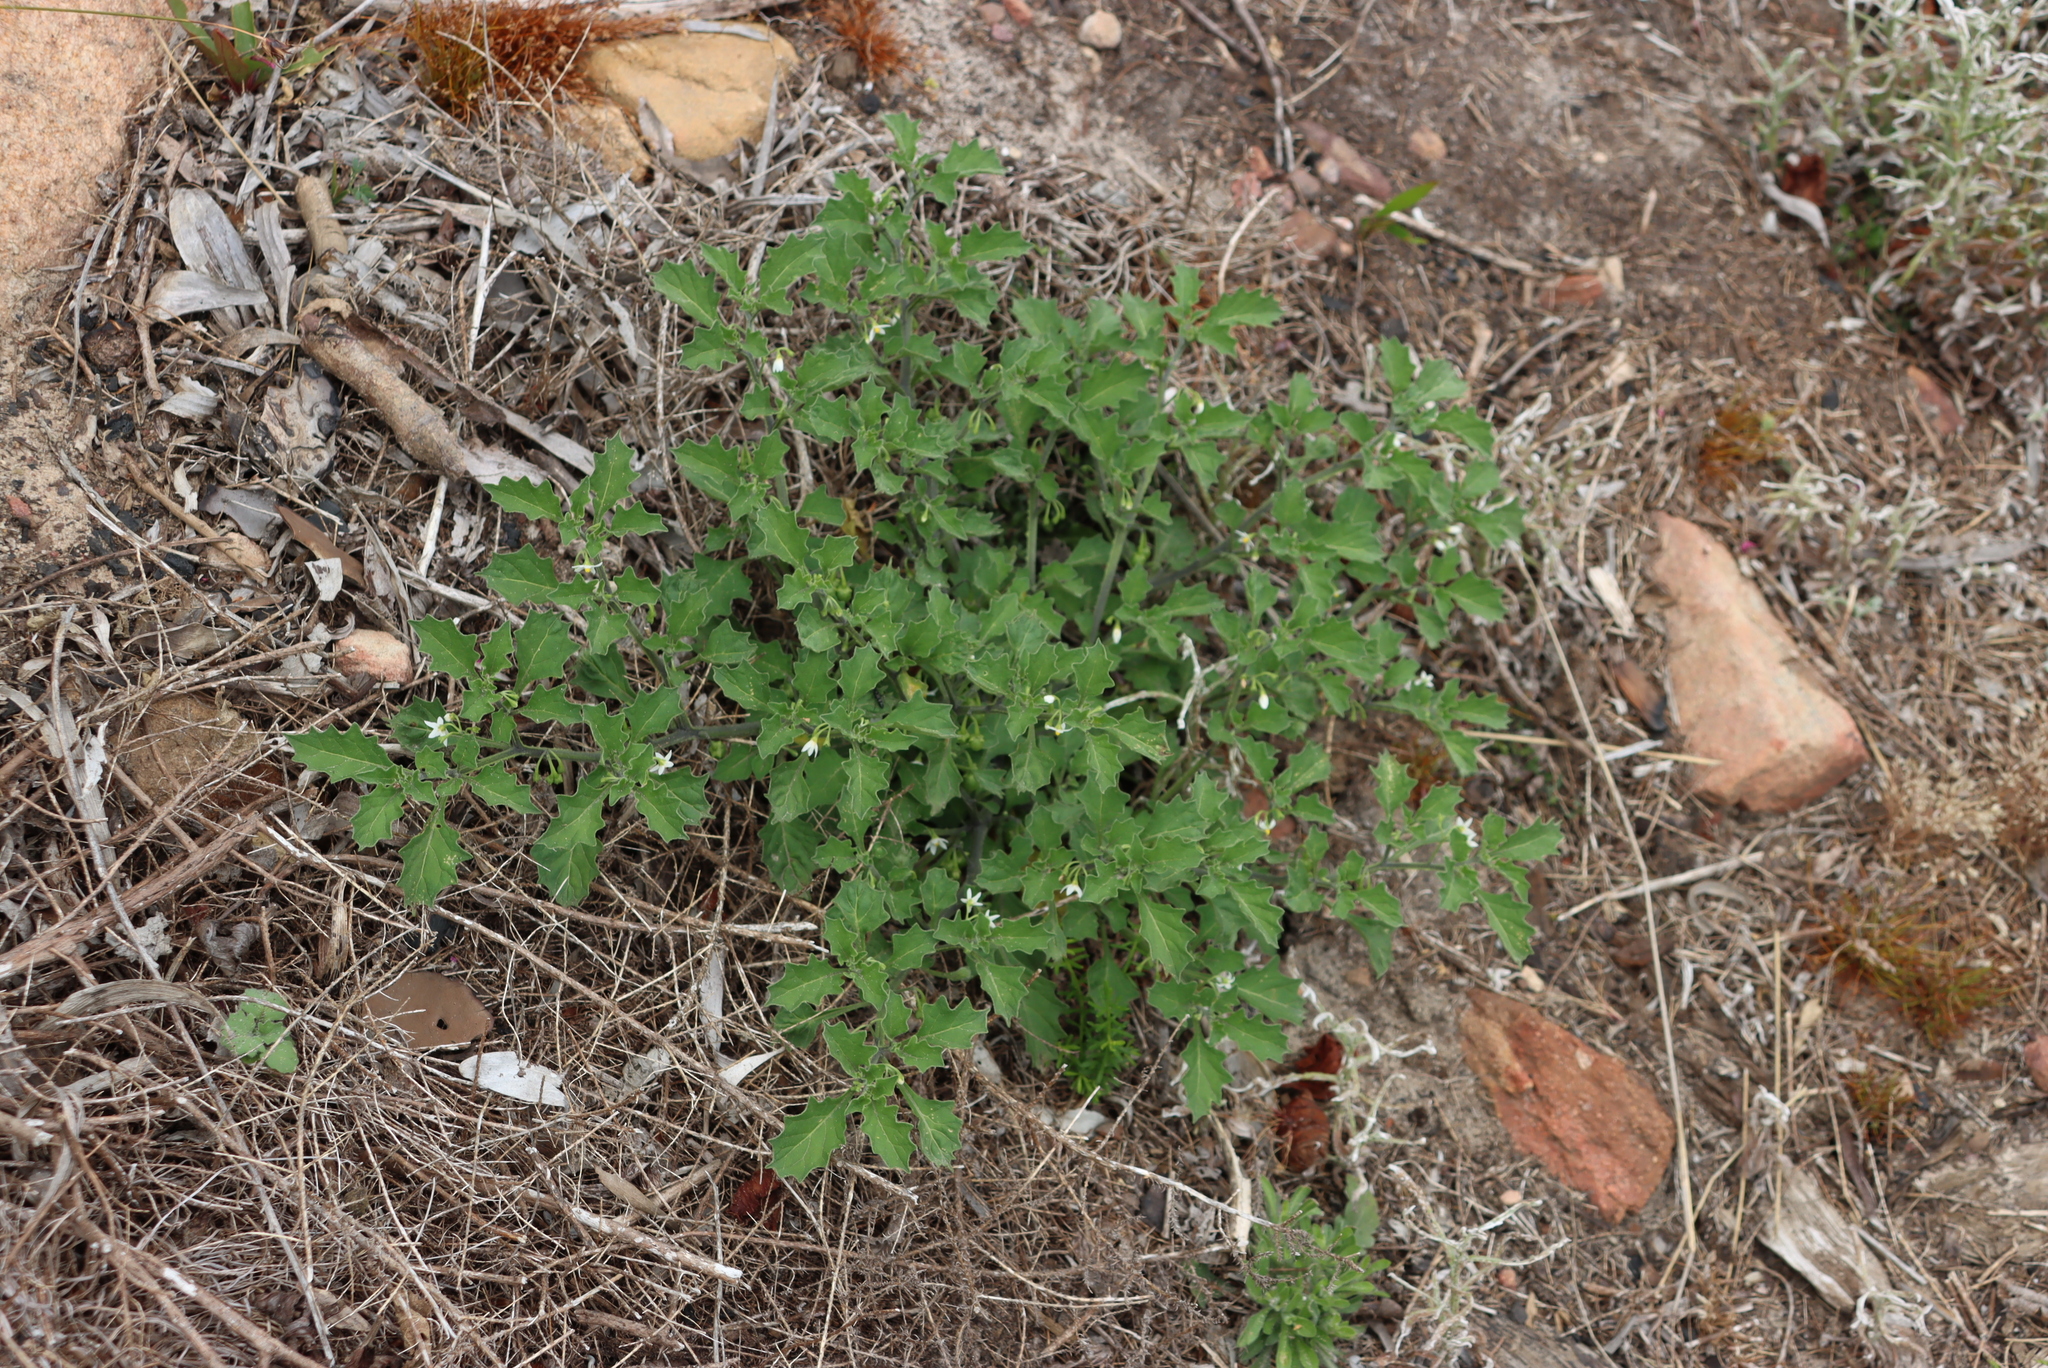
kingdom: Plantae
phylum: Tracheophyta
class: Magnoliopsida
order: Solanales
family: Solanaceae
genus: Solanum
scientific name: Solanum retroflexum
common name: Wonderberry
